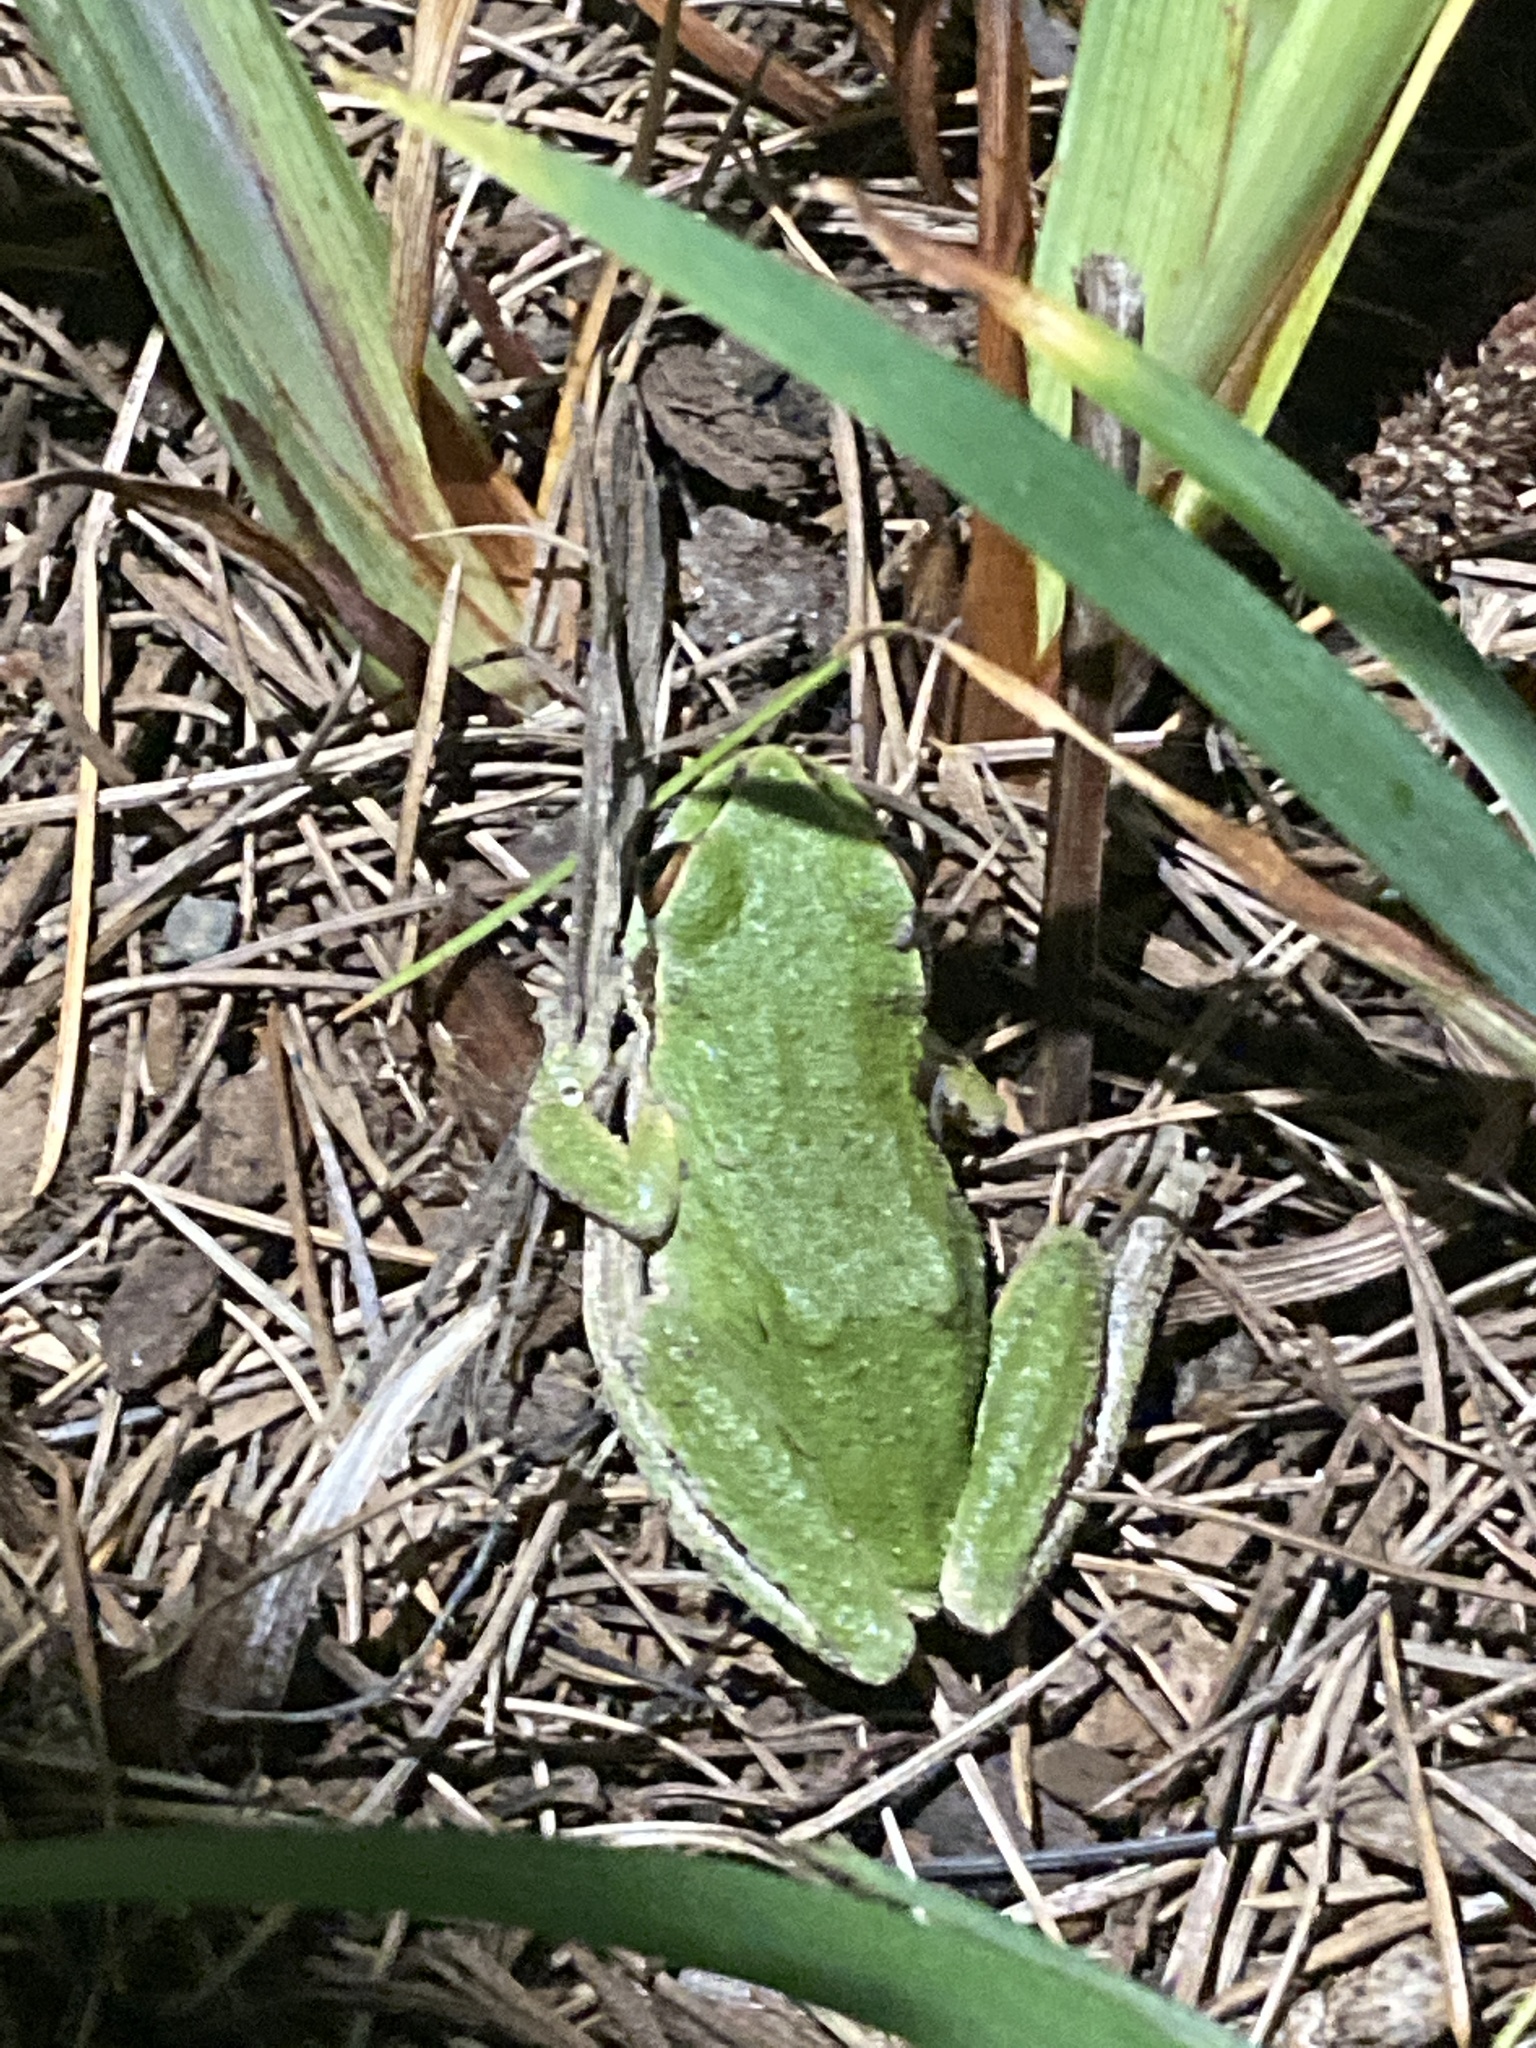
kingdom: Animalia
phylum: Chordata
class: Amphibia
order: Anura
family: Hylidae
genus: Pseudacris
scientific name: Pseudacris regilla
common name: Pacific chorus frog
